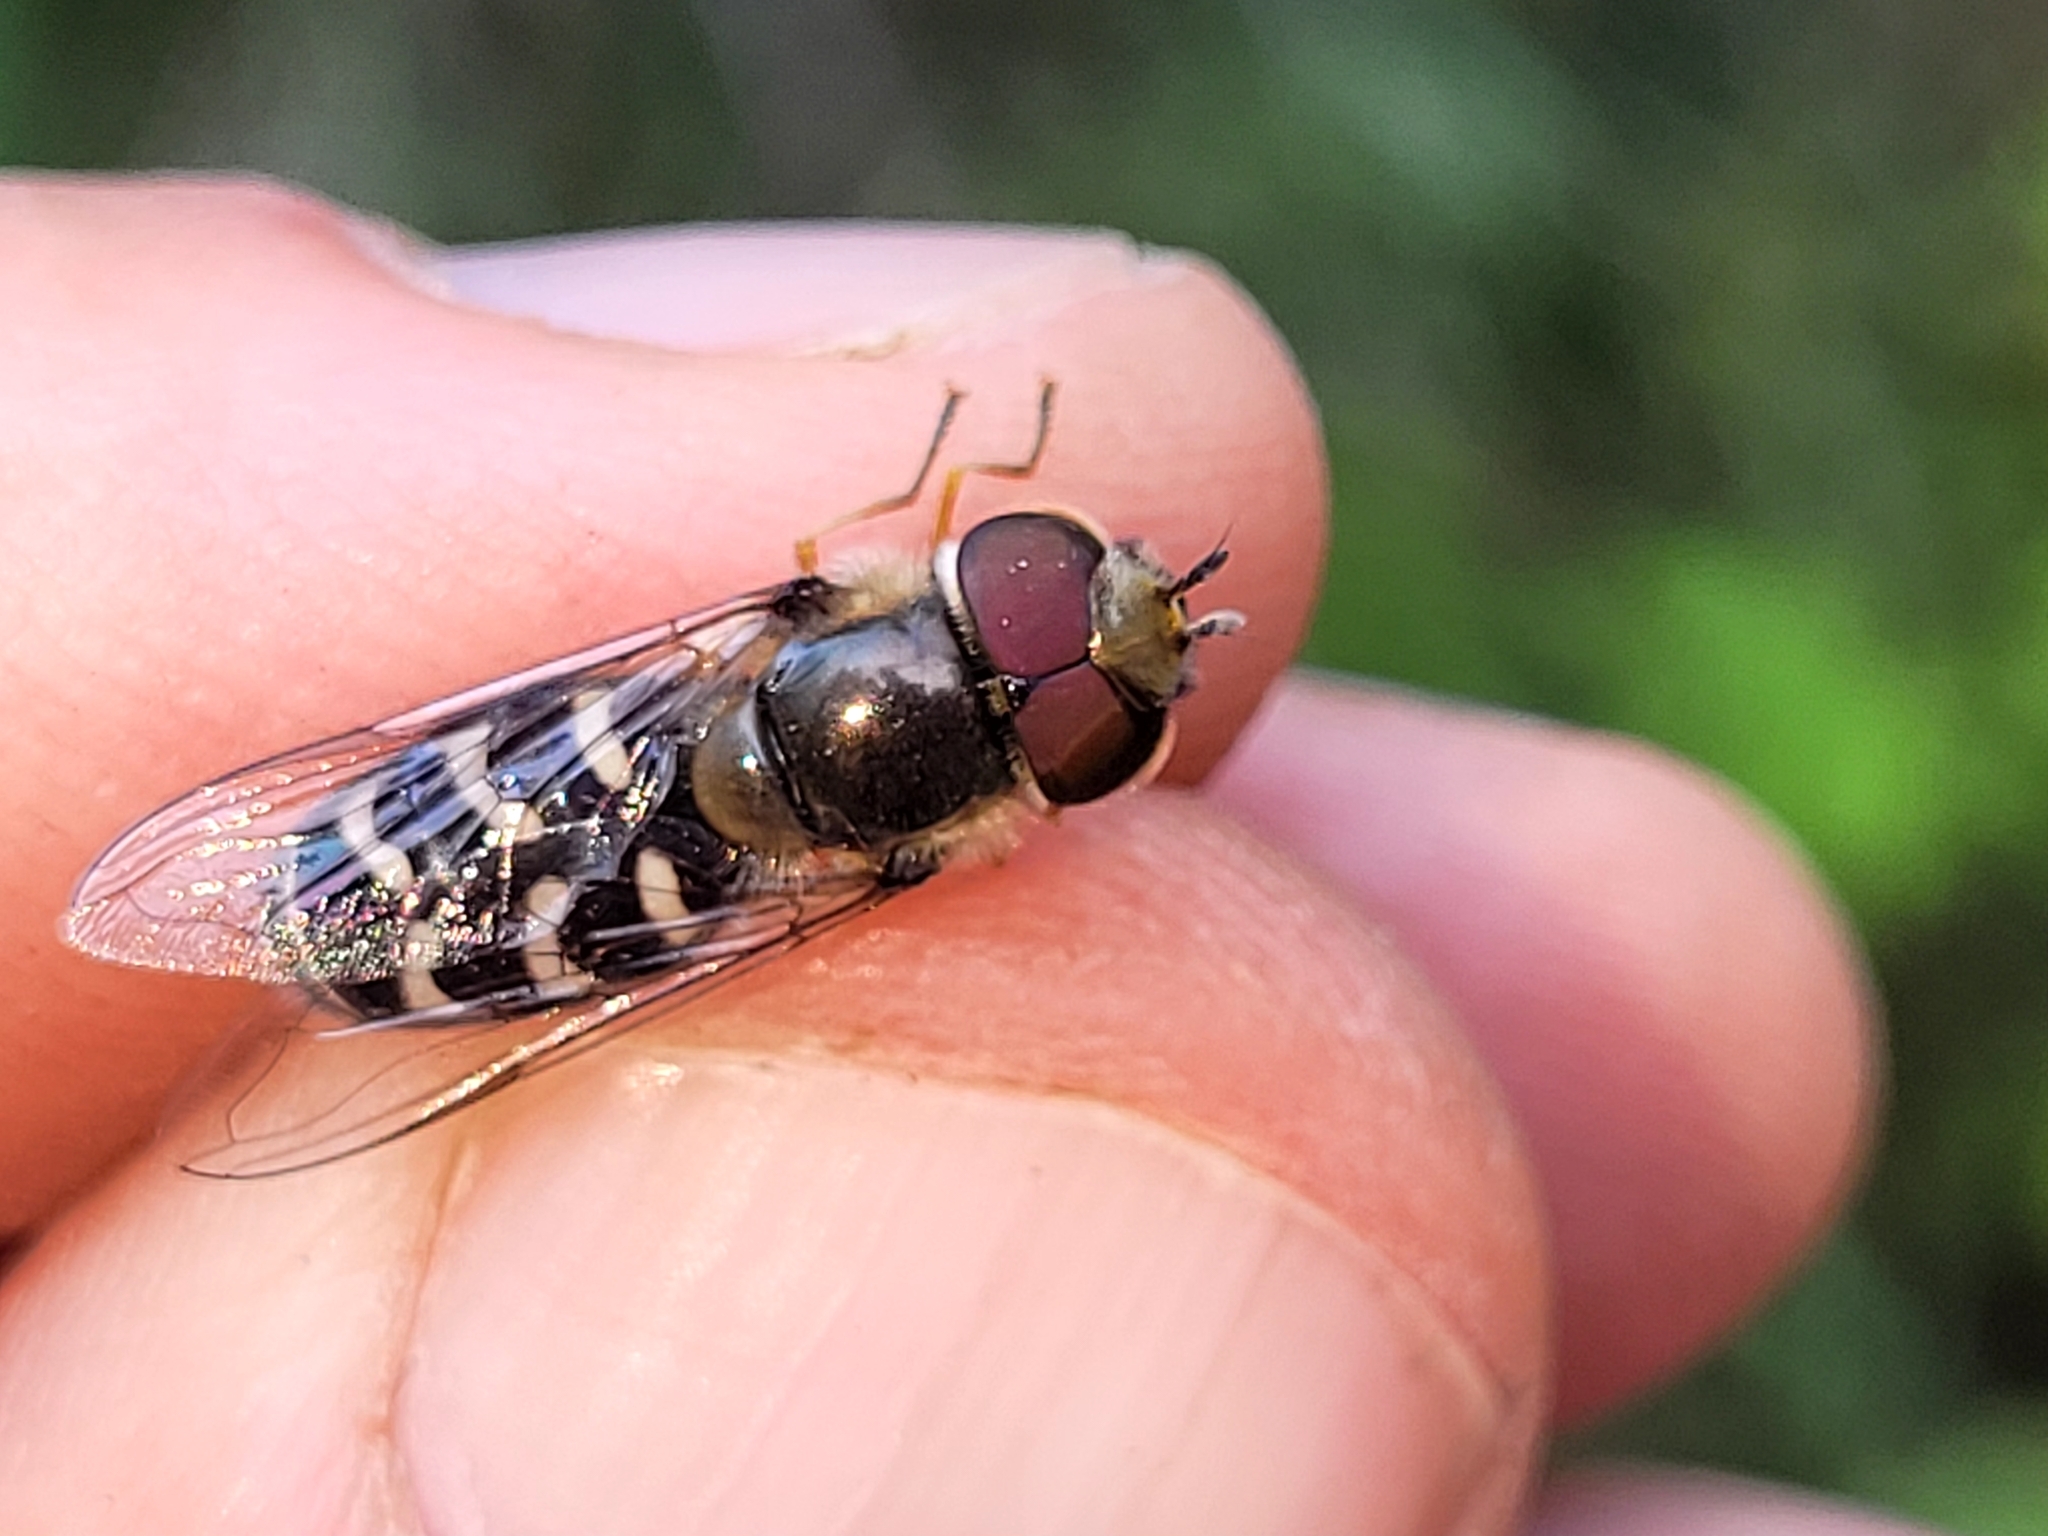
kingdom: Animalia
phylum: Arthropoda
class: Insecta
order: Diptera
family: Syrphidae
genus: Scaeva
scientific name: Scaeva affinis
